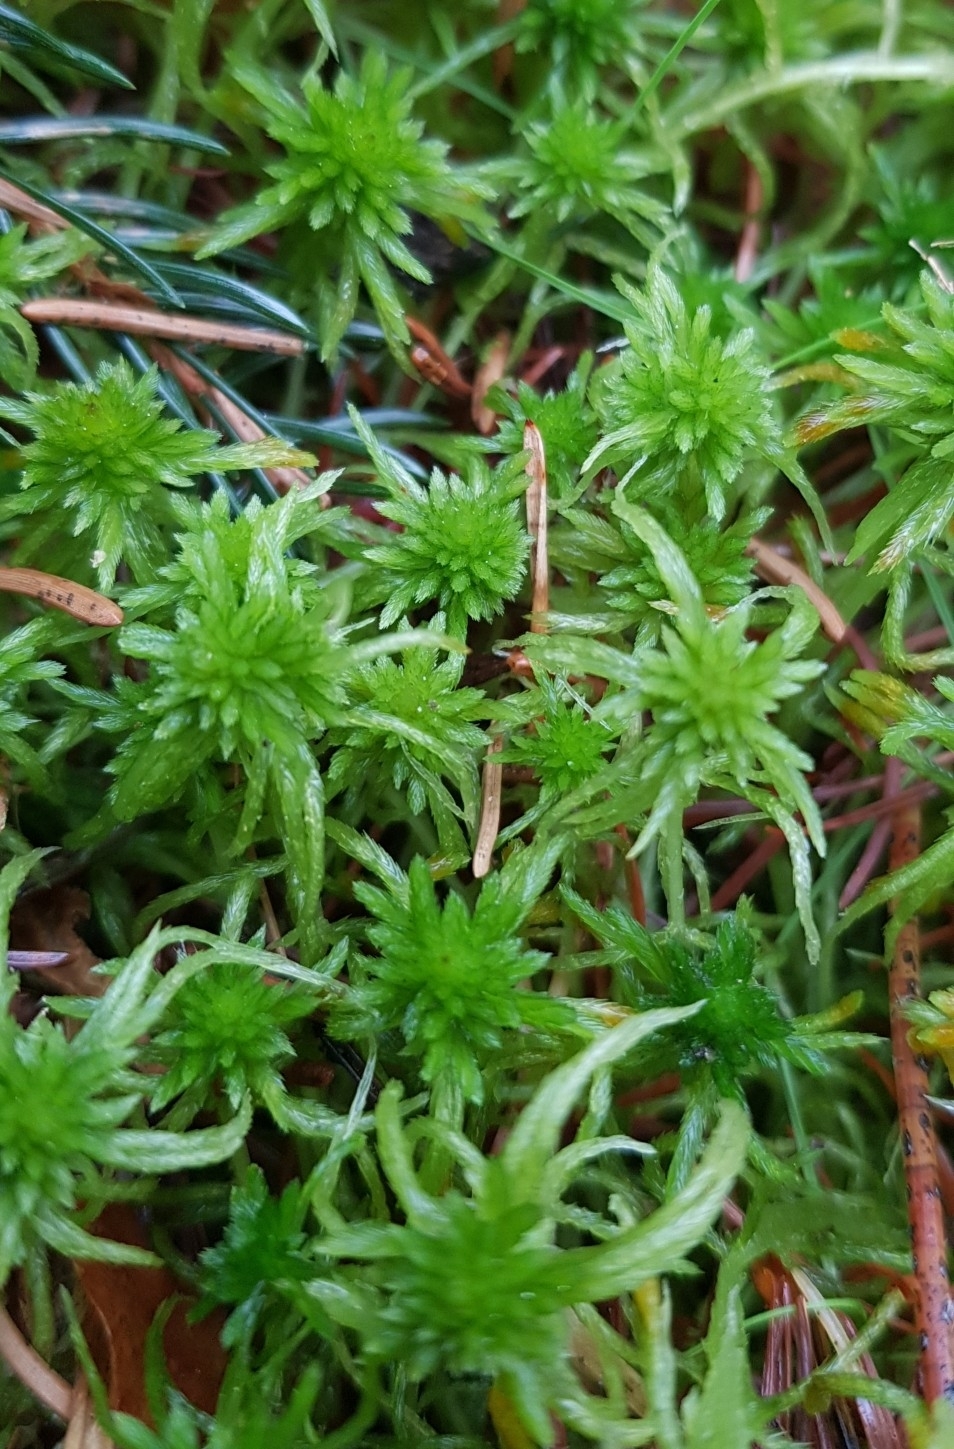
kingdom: Plantae
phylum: Bryophyta
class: Sphagnopsida
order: Sphagnales
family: Sphagnaceae
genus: Sphagnum
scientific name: Sphagnum fallax
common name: Flat-top peat moss
